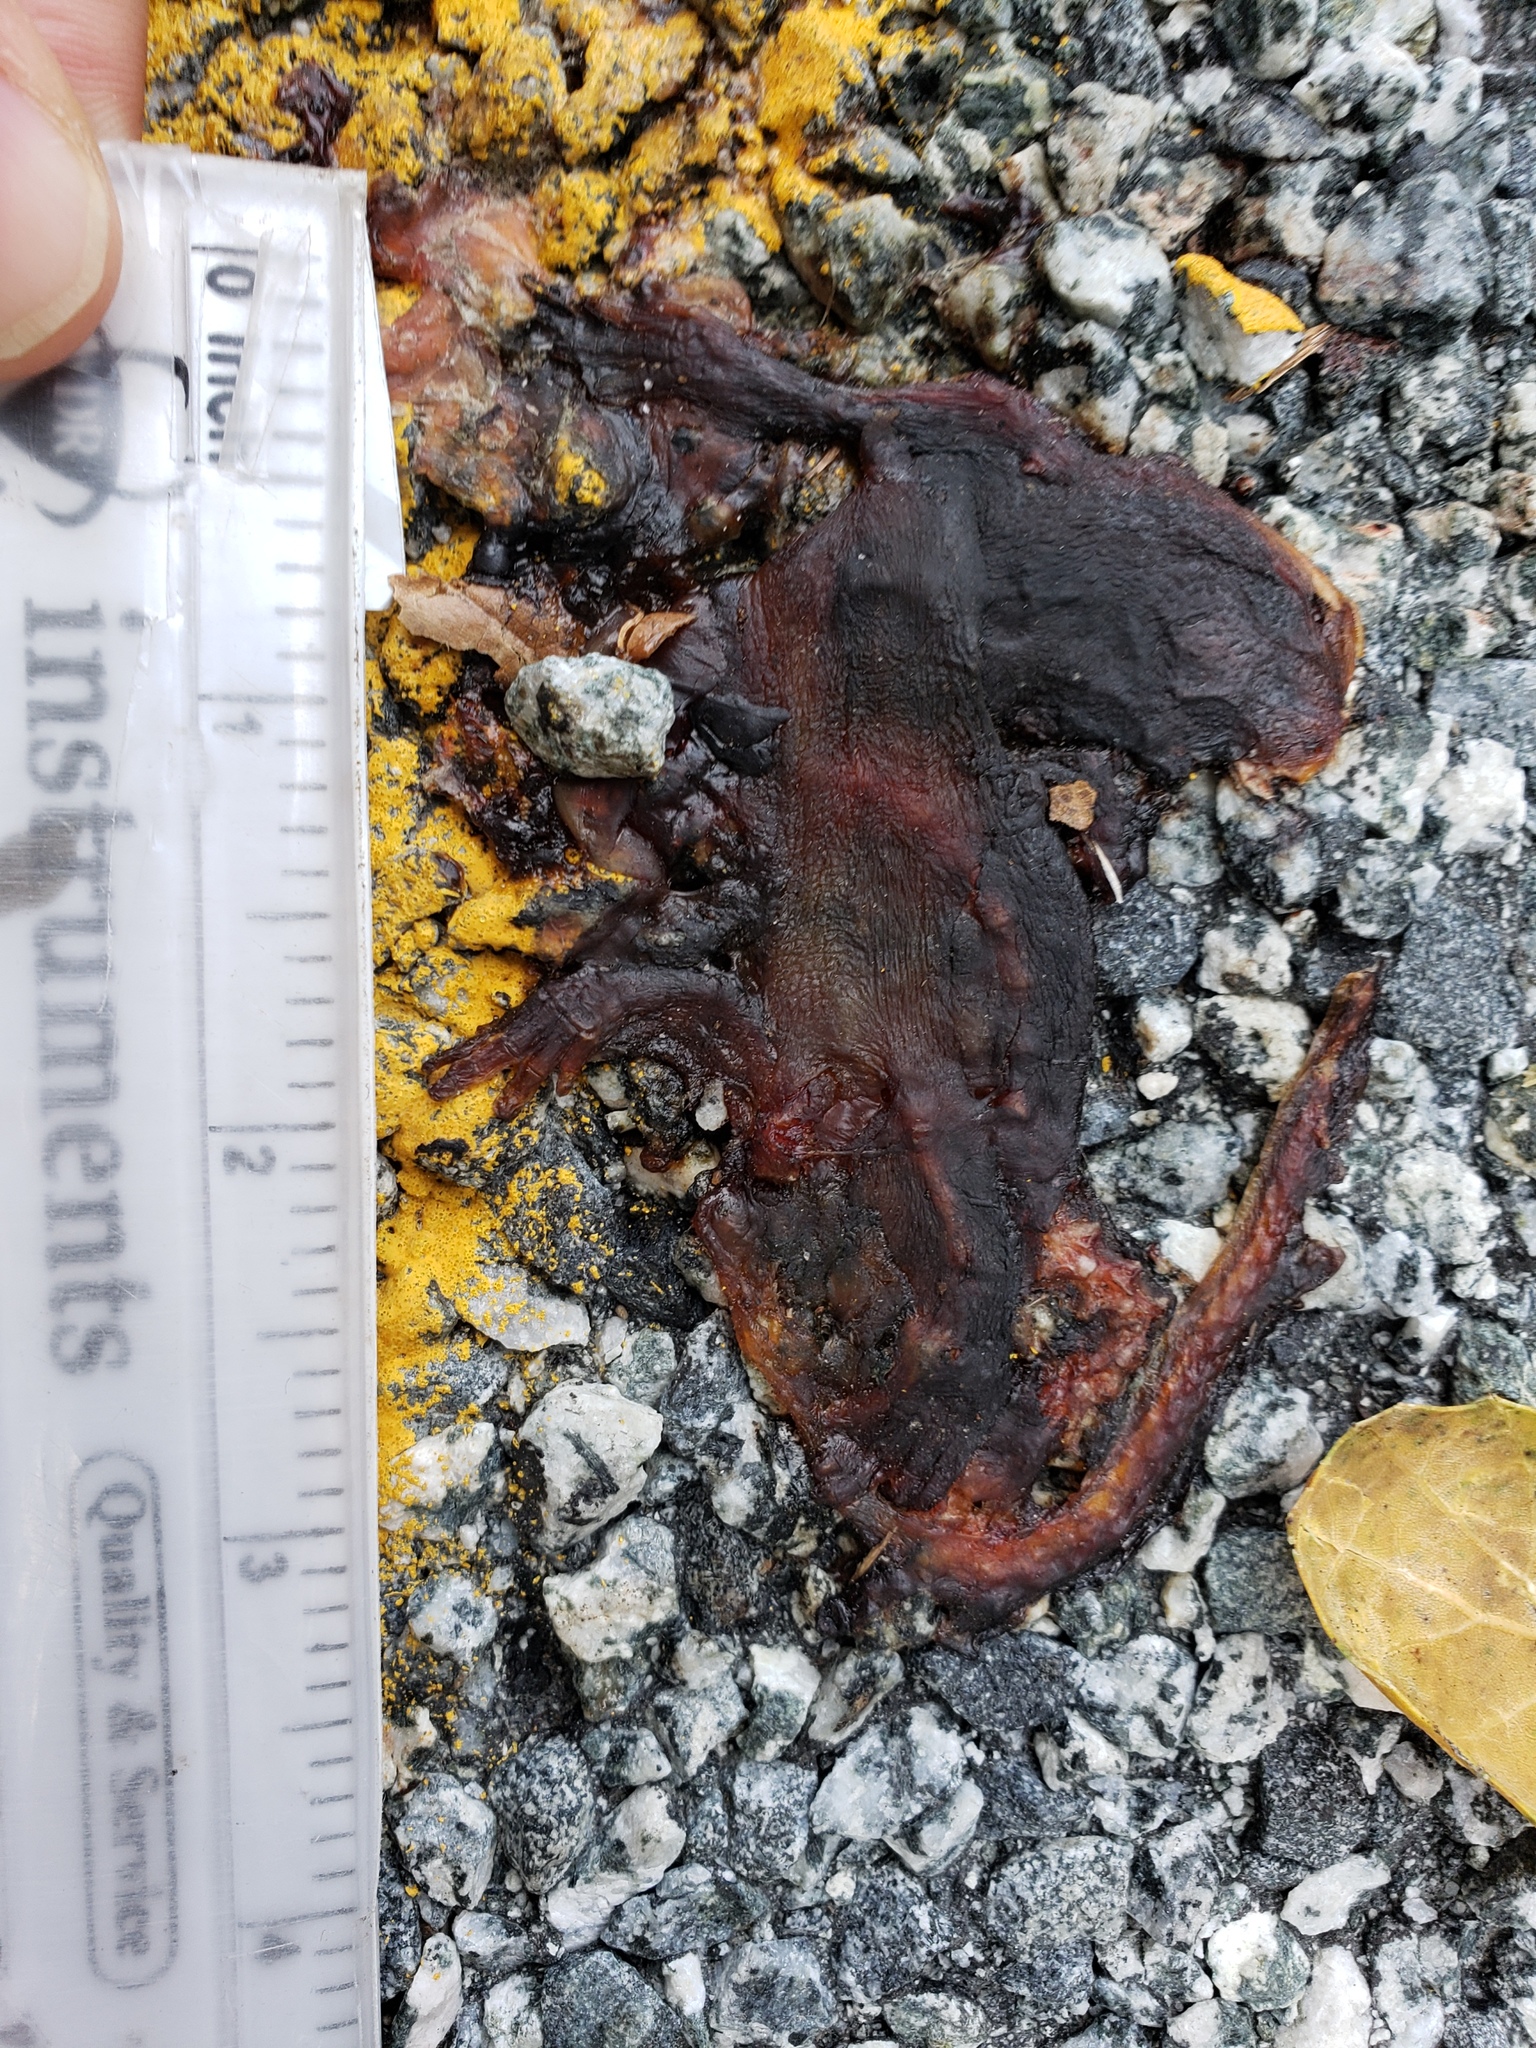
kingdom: Animalia
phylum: Chordata
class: Amphibia
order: Caudata
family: Salamandridae
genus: Taricha
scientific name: Taricha
